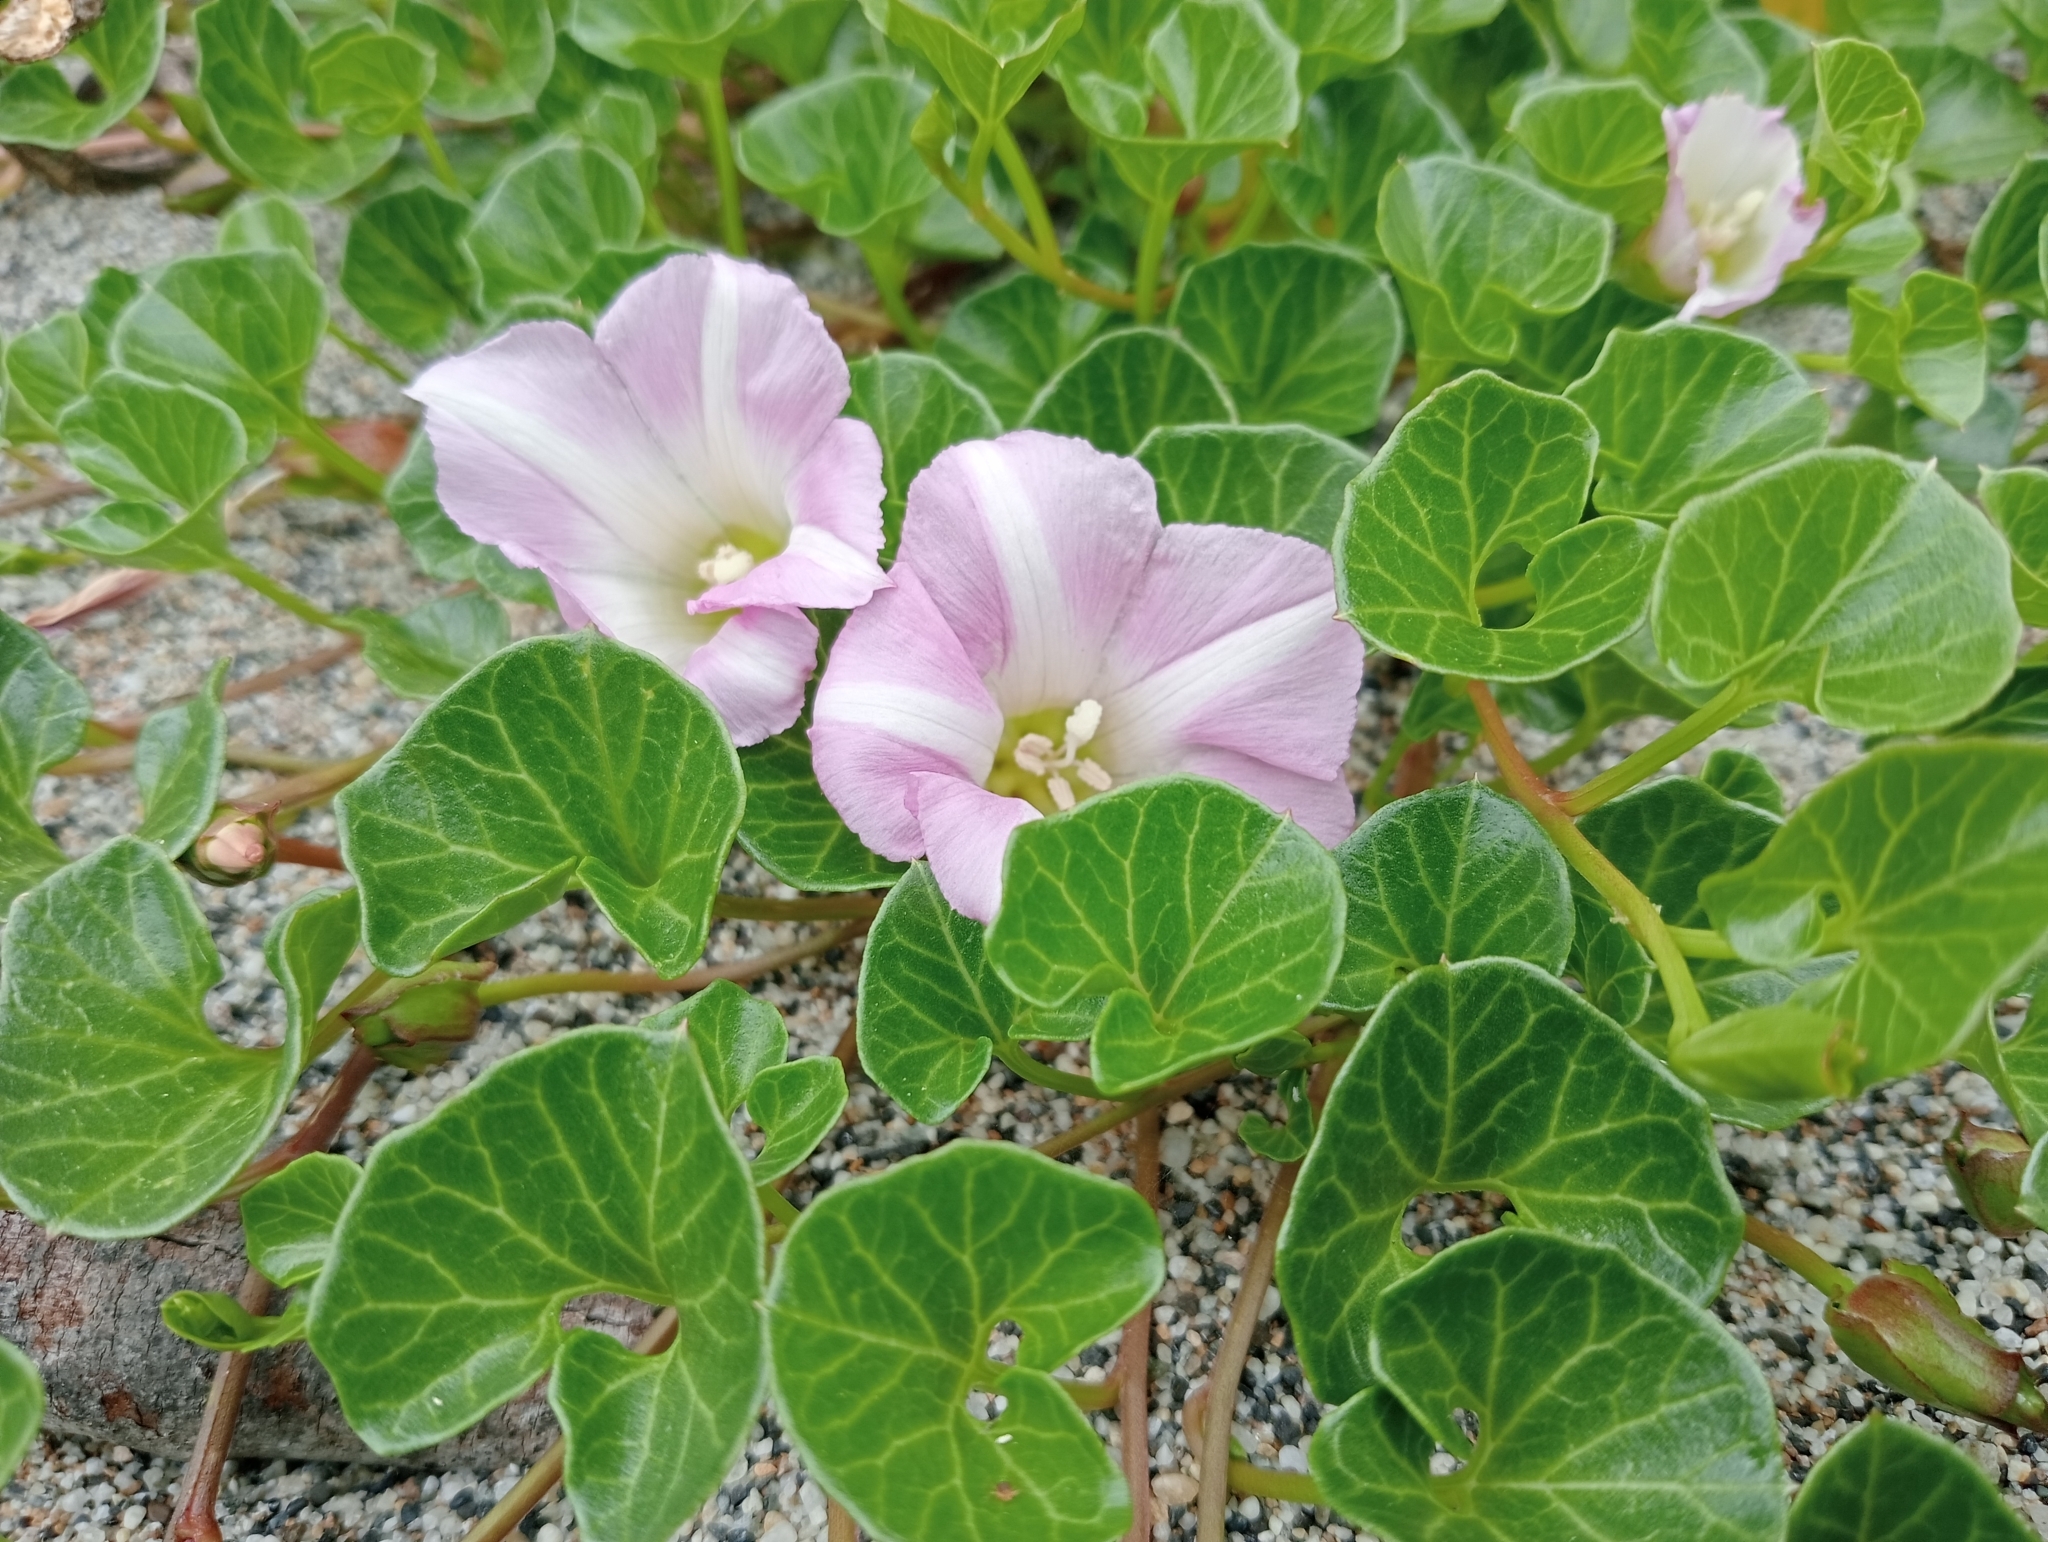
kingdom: Plantae
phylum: Tracheophyta
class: Magnoliopsida
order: Solanales
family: Convolvulaceae
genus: Calystegia
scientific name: Calystegia soldanella
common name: Sea bindweed
